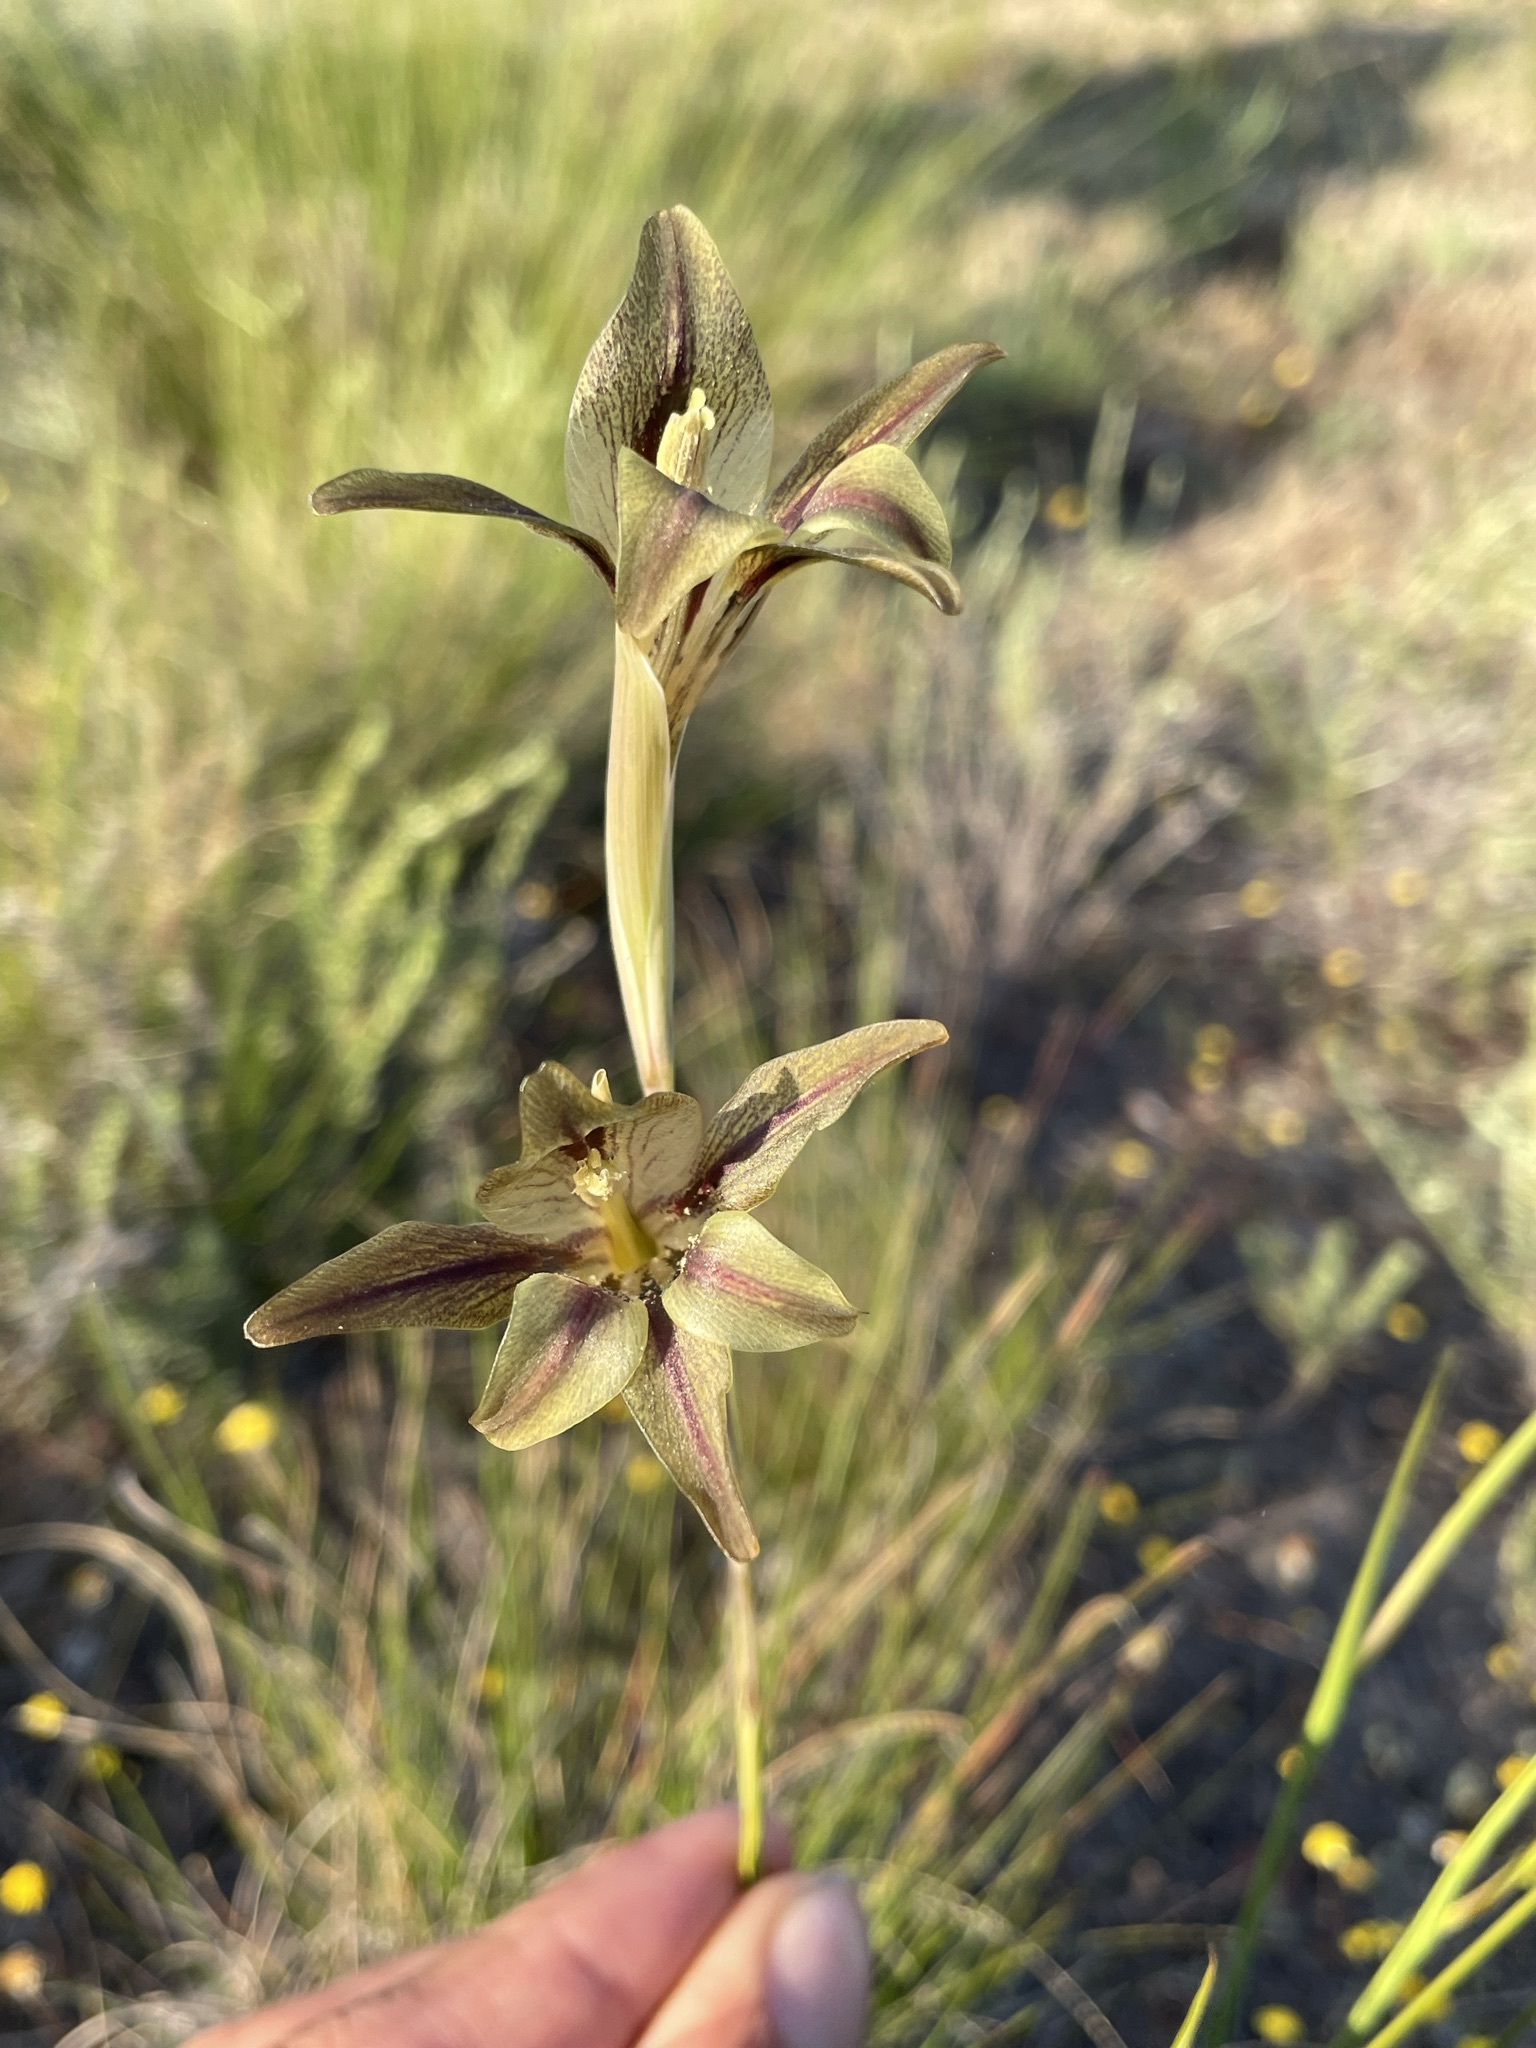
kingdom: Plantae
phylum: Tracheophyta
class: Liliopsida
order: Asparagales
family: Iridaceae
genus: Gladiolus
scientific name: Gladiolus hyalinus
